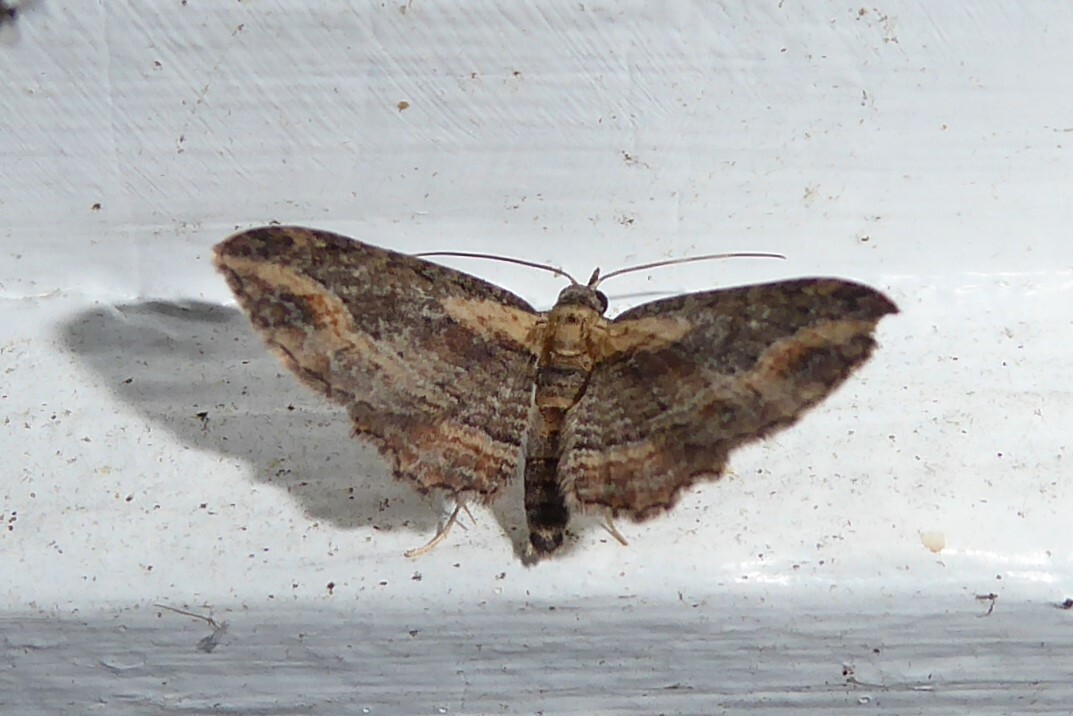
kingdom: Animalia
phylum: Arthropoda
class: Insecta
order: Lepidoptera
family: Geometridae
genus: Chloroclystis
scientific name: Chloroclystis filata
